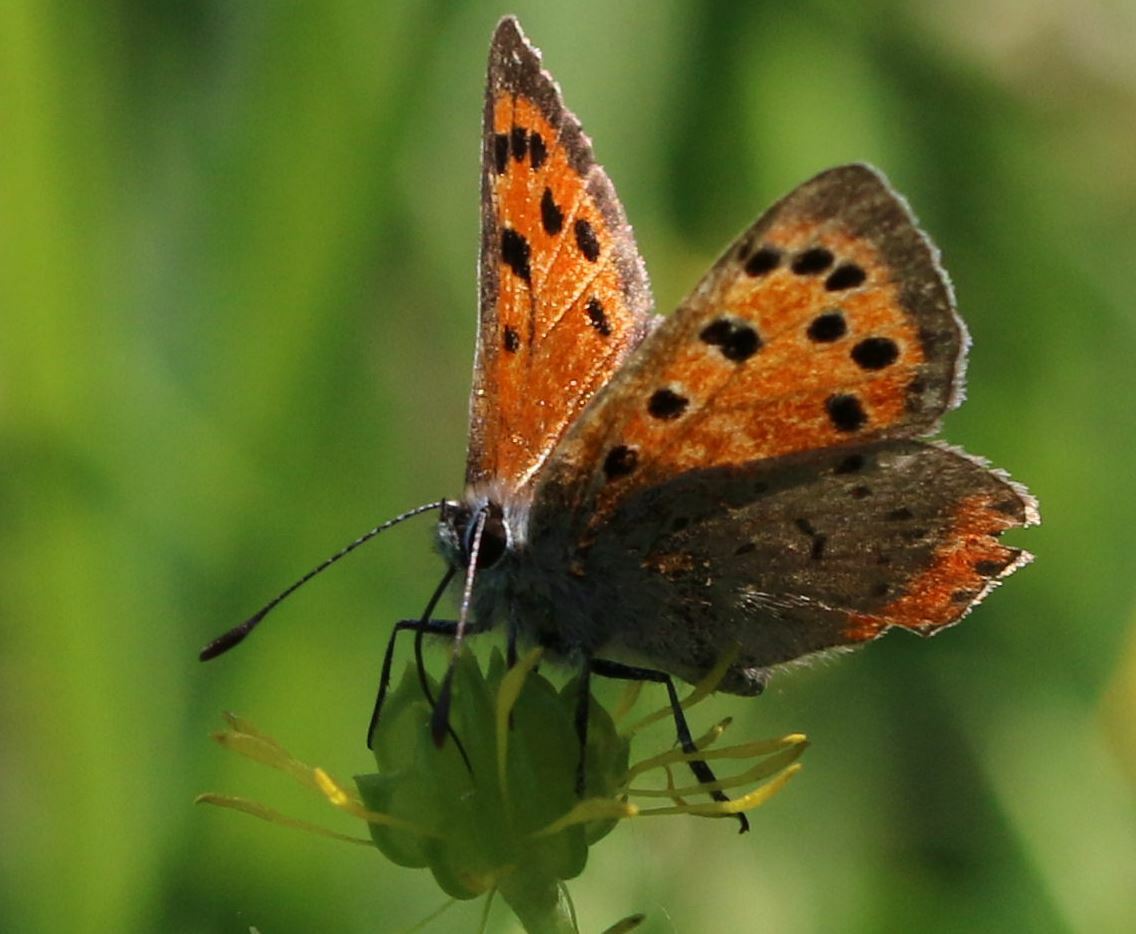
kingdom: Animalia
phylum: Arthropoda
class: Insecta
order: Lepidoptera
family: Lycaenidae
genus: Lycaena
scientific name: Lycaena phlaeas
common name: Small copper
